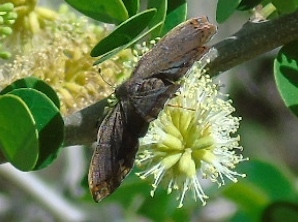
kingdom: Animalia
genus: Caria
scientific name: Caria ino
